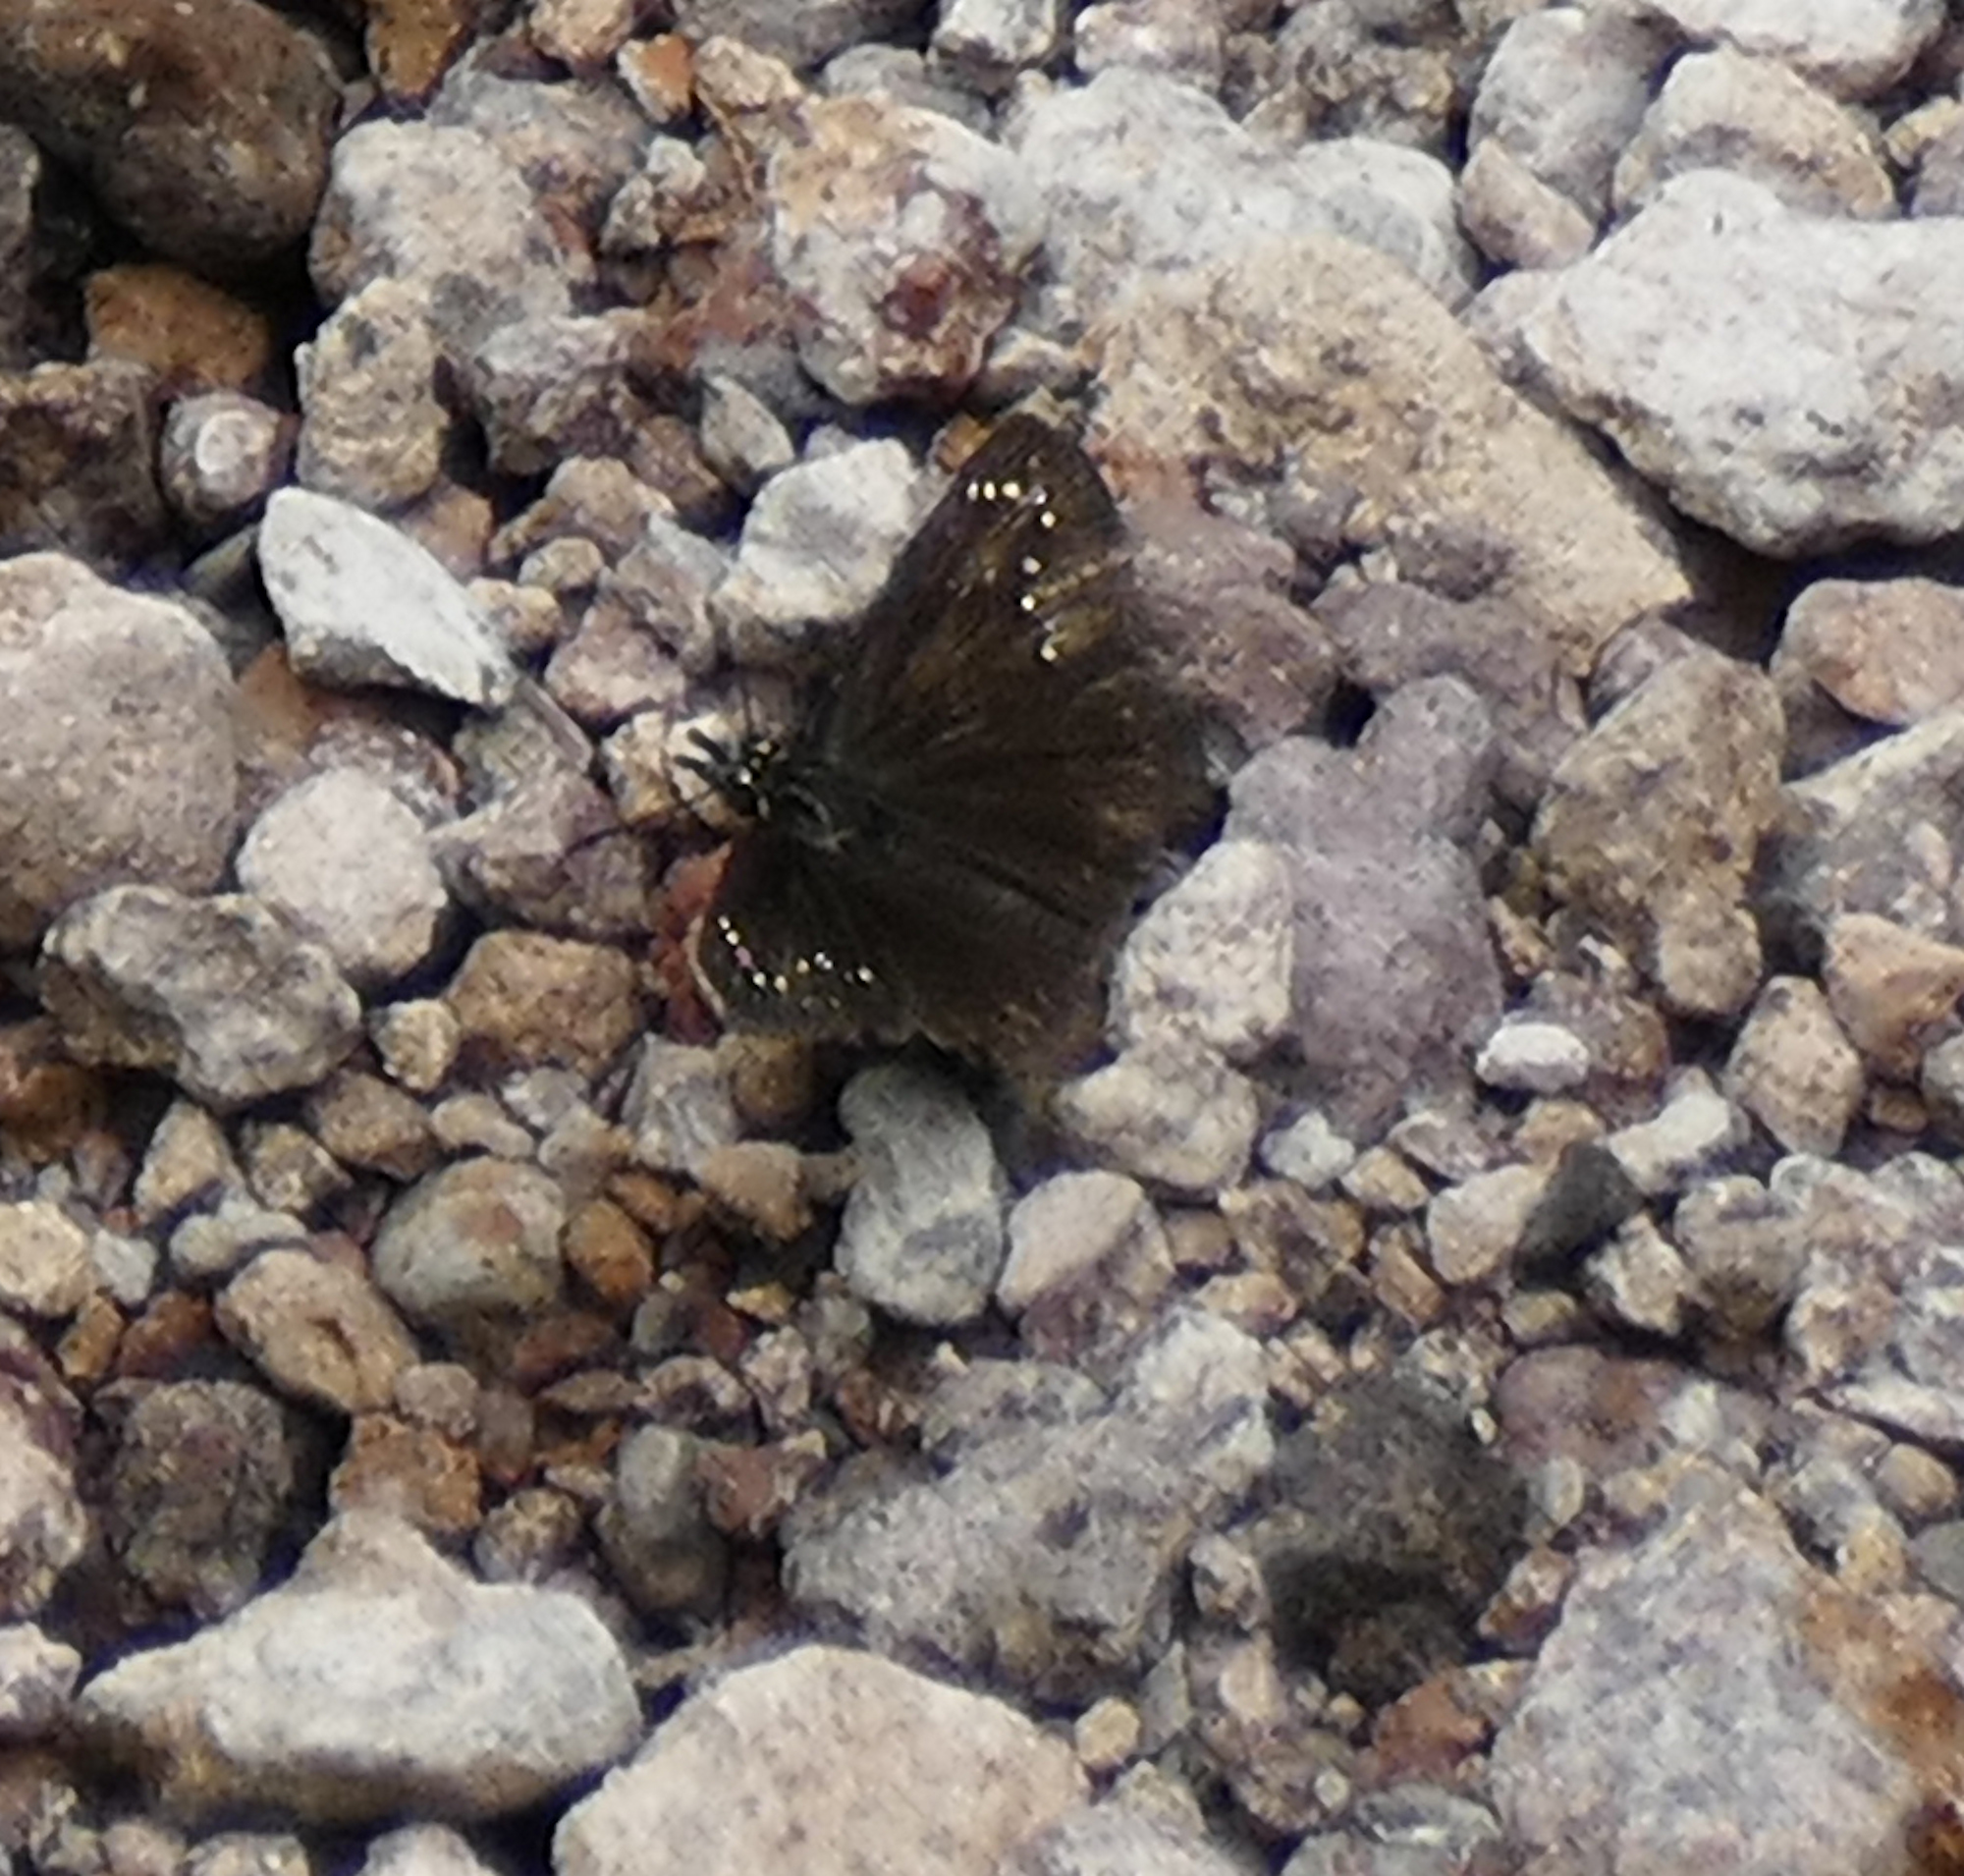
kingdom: Animalia
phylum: Arthropoda
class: Insecta
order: Lepidoptera
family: Hesperiidae
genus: Pholisora
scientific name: Pholisora catullus
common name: Common sootywing
